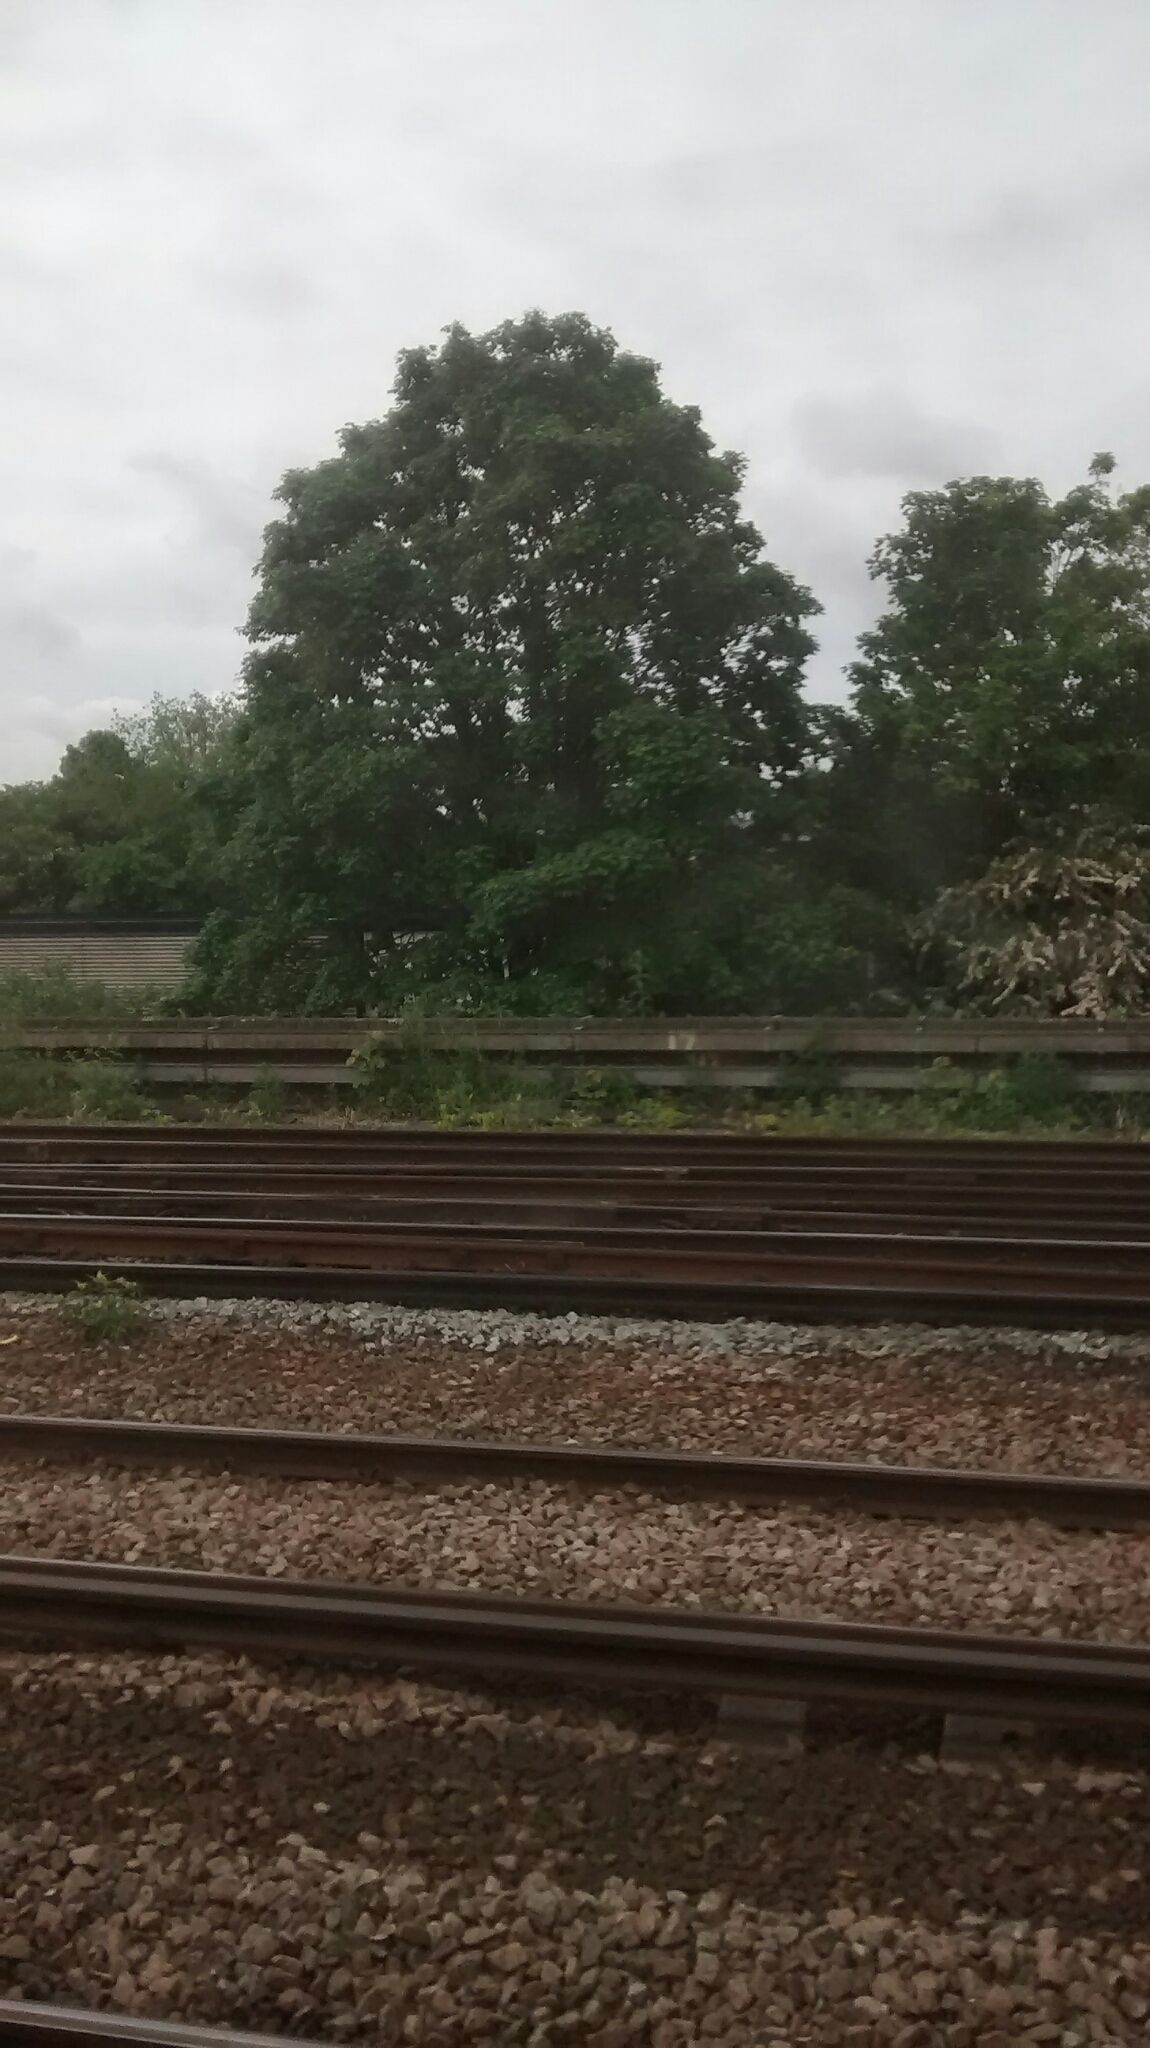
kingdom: Plantae
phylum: Tracheophyta
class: Magnoliopsida
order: Sapindales
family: Sapindaceae
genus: Acer
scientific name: Acer pseudoplatanus
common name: Sycamore
